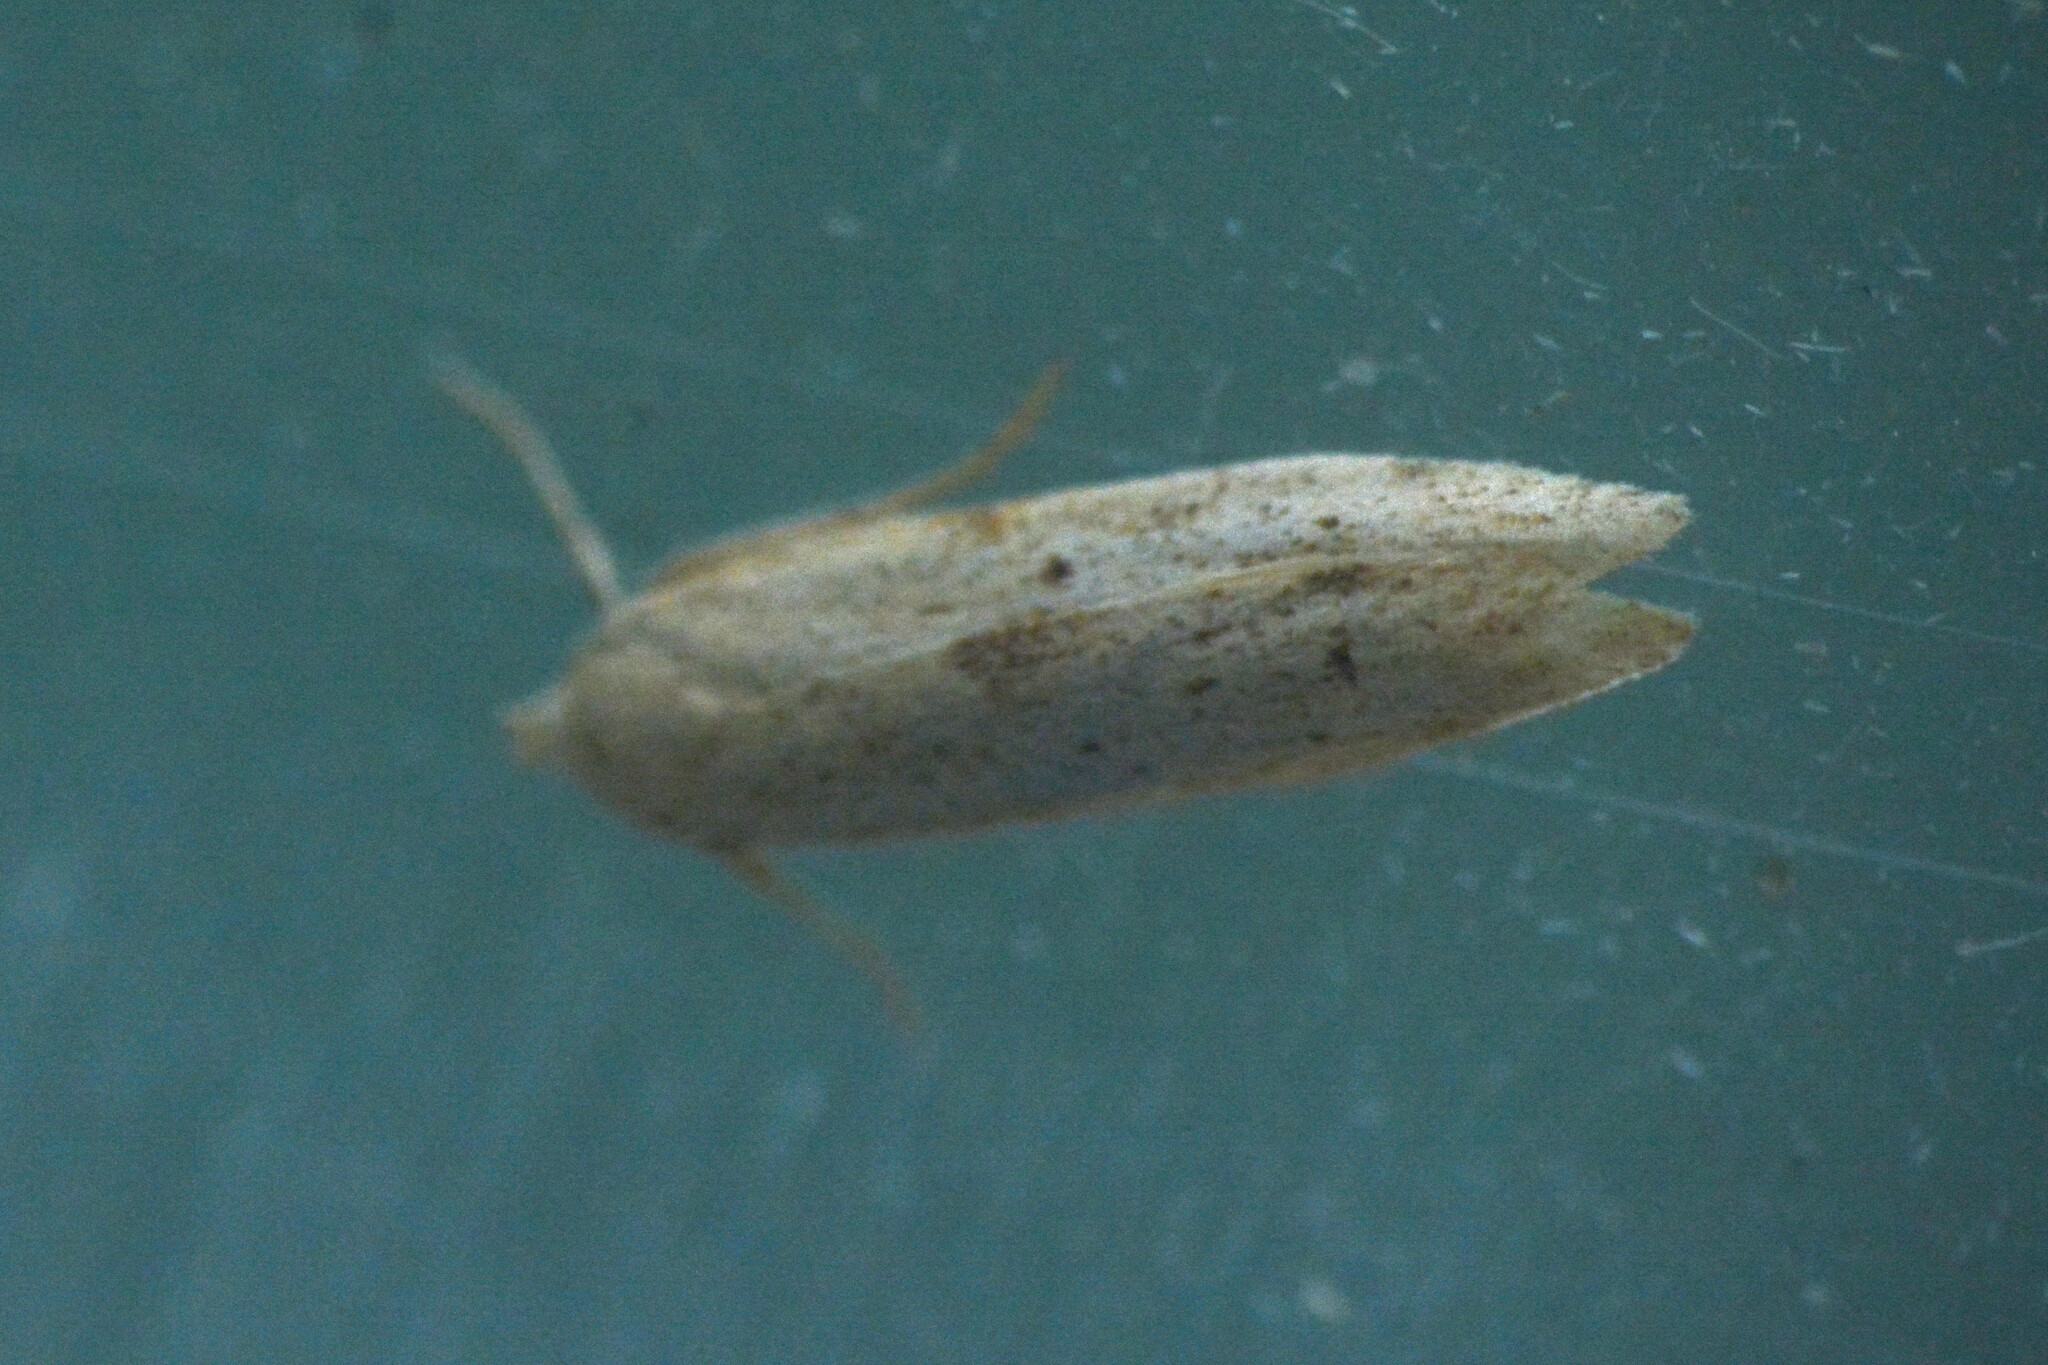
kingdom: Animalia
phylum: Arthropoda
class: Insecta
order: Lepidoptera
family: Blastobasidae
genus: Blastobasis
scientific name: Blastobasis lacticolella
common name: London dowd
